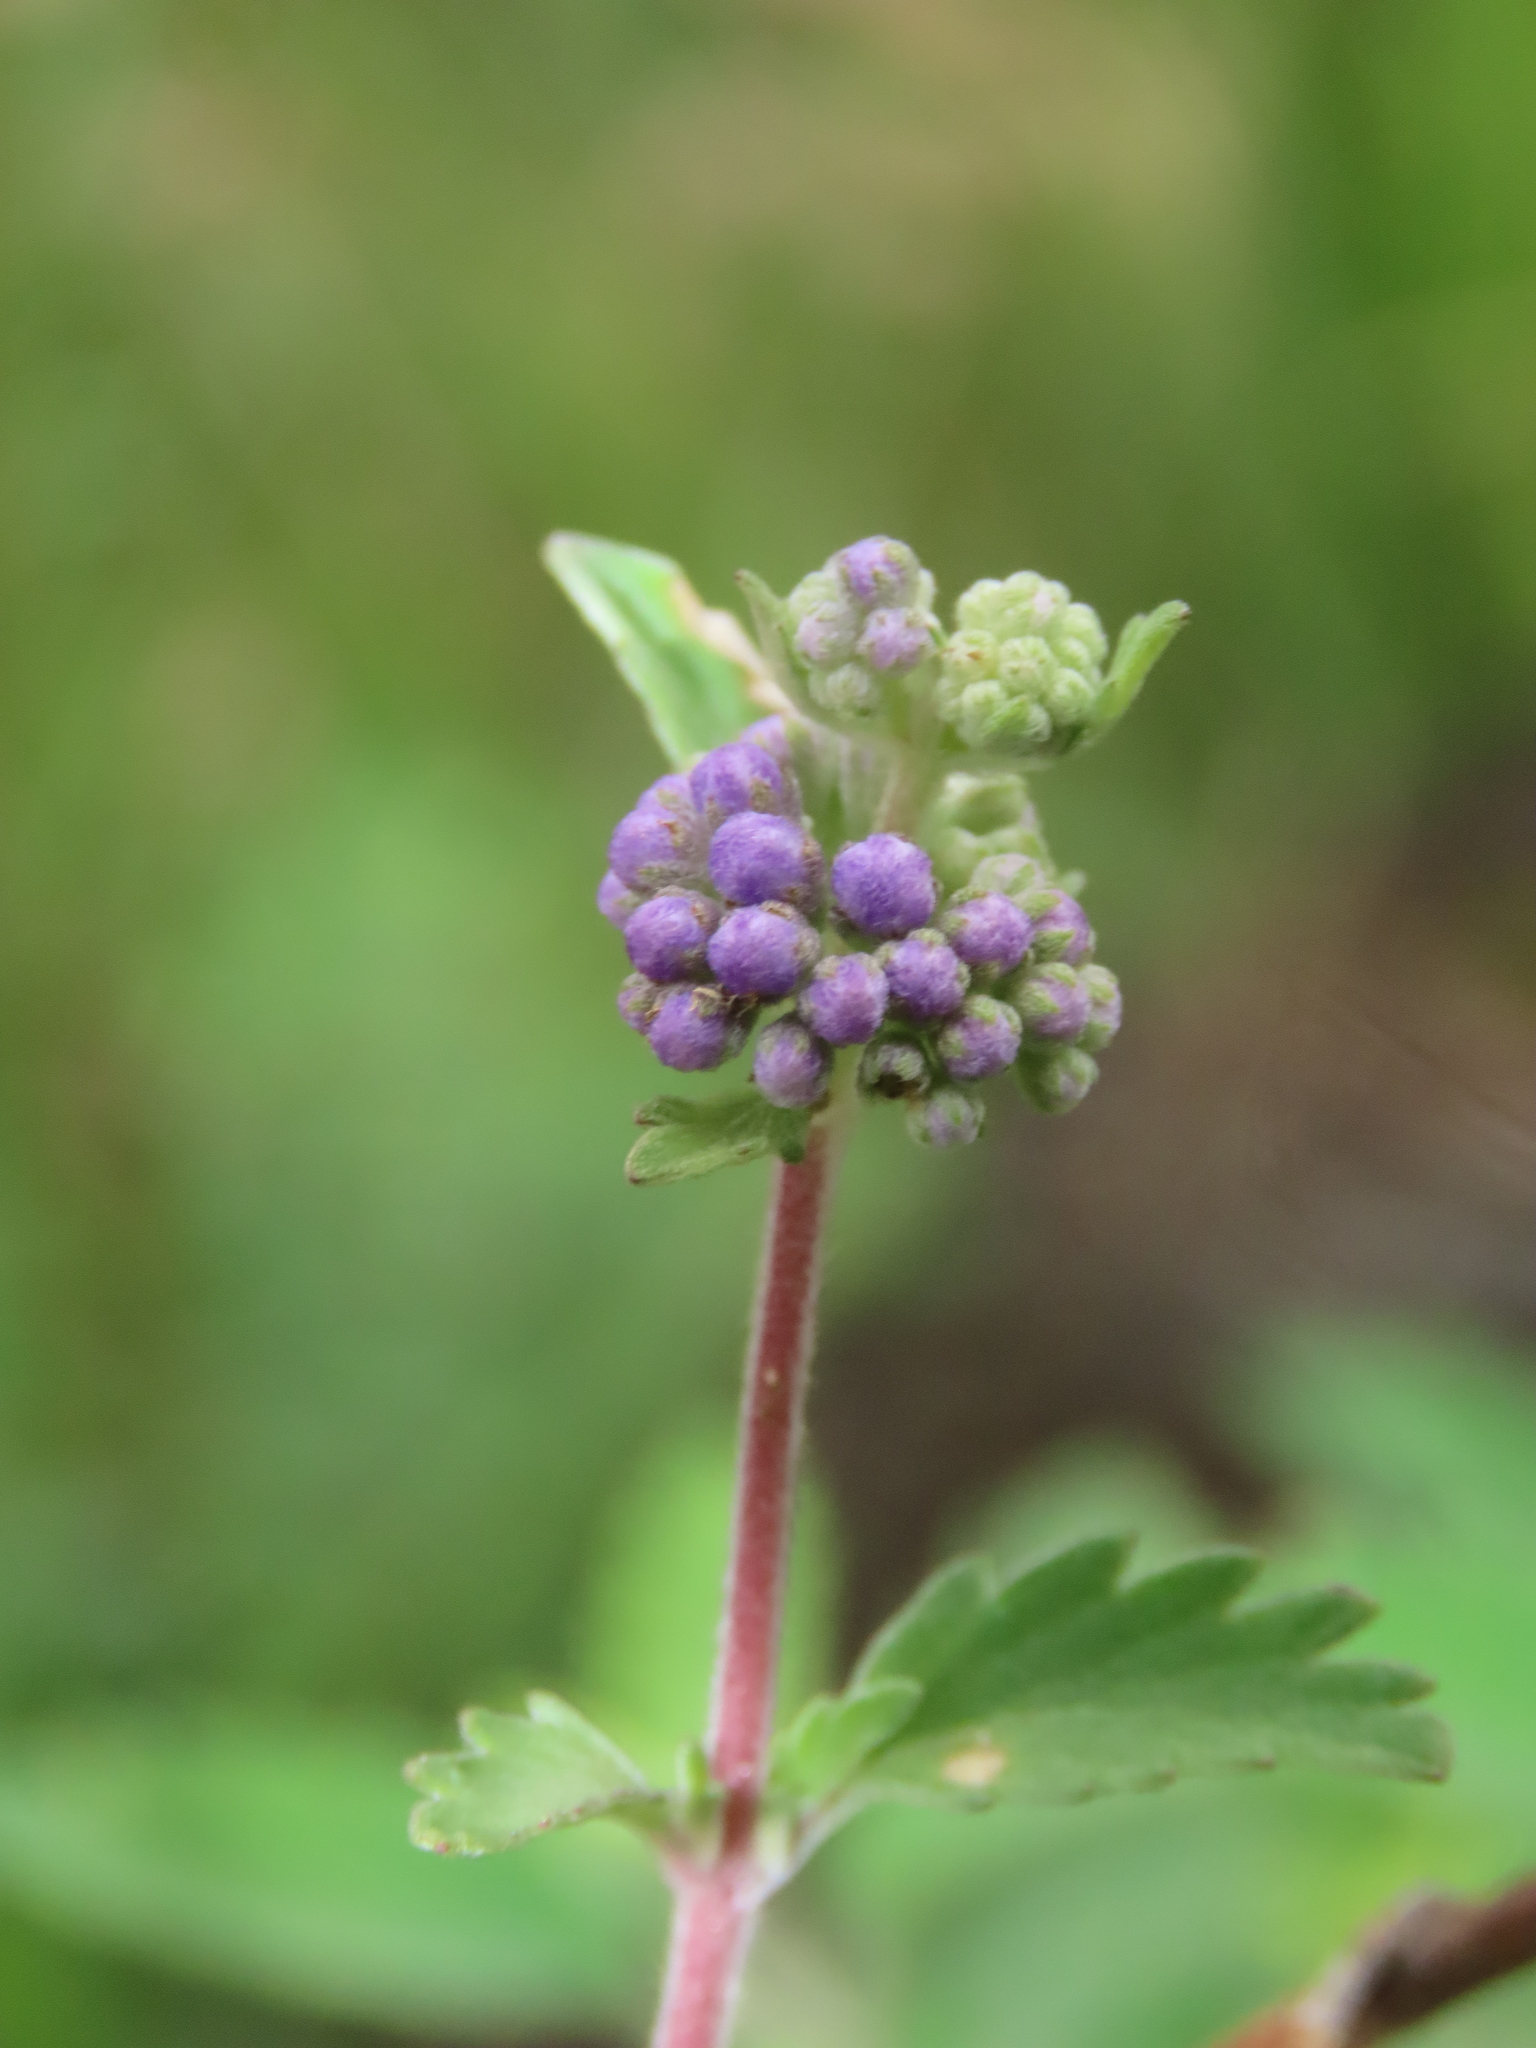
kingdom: Plantae
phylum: Tracheophyta
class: Magnoliopsida
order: Lamiales
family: Lamiaceae
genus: Caryopteris
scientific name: Caryopteris incana
